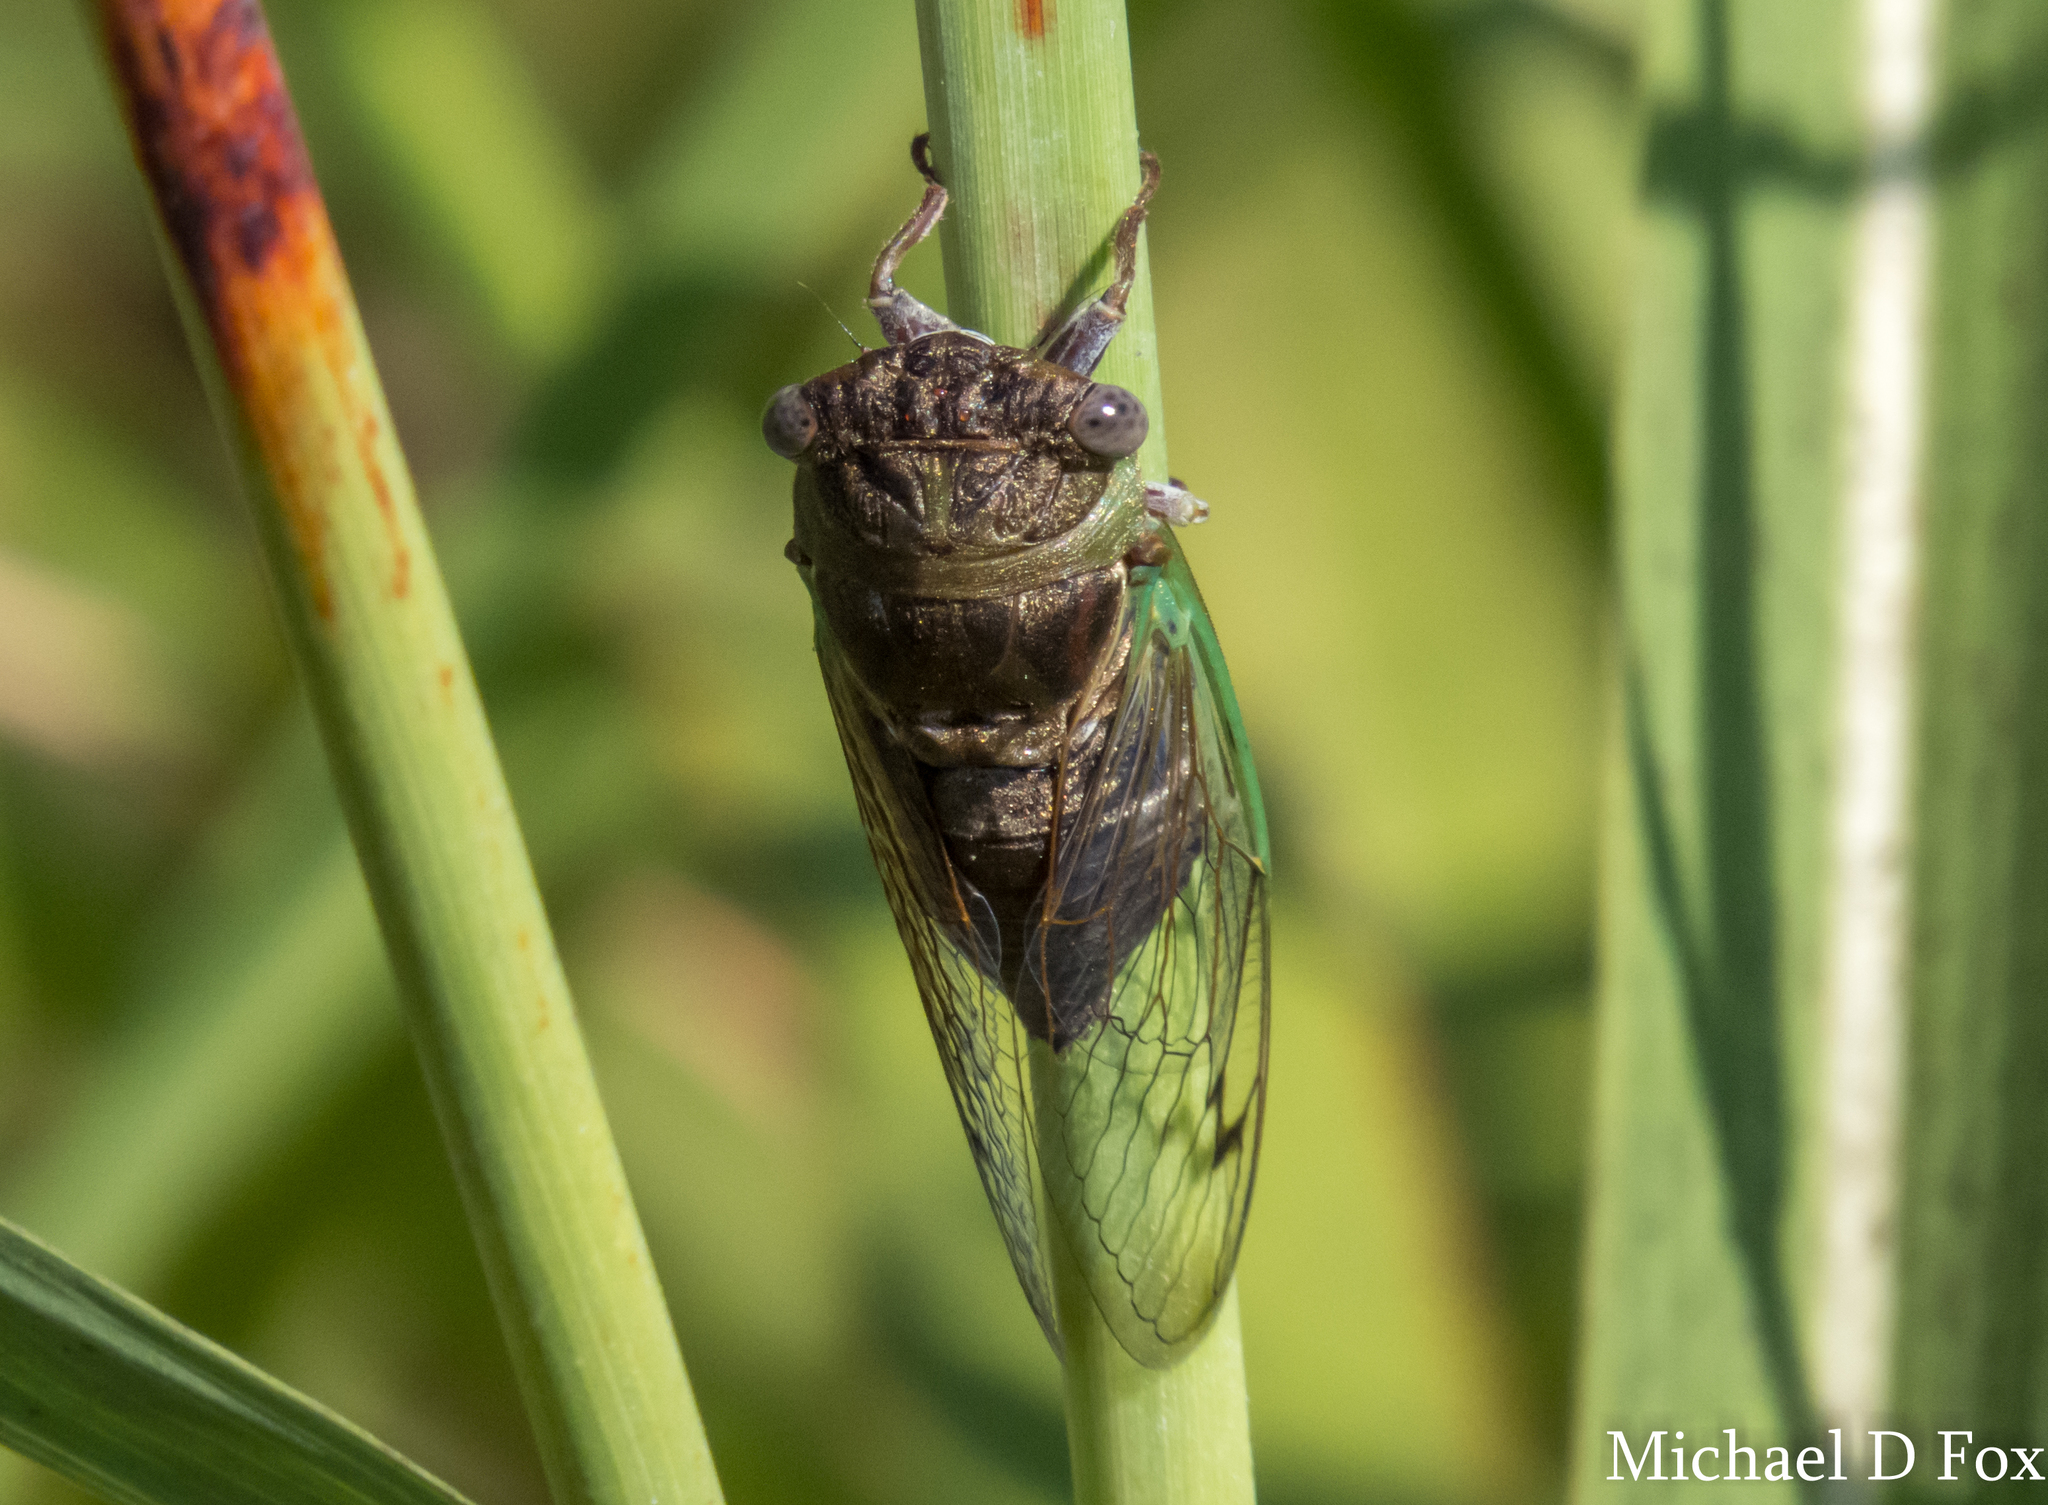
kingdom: Animalia
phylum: Arthropoda
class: Insecta
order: Hemiptera
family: Cicadidae
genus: Neotibicen
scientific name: Neotibicen aurifer
